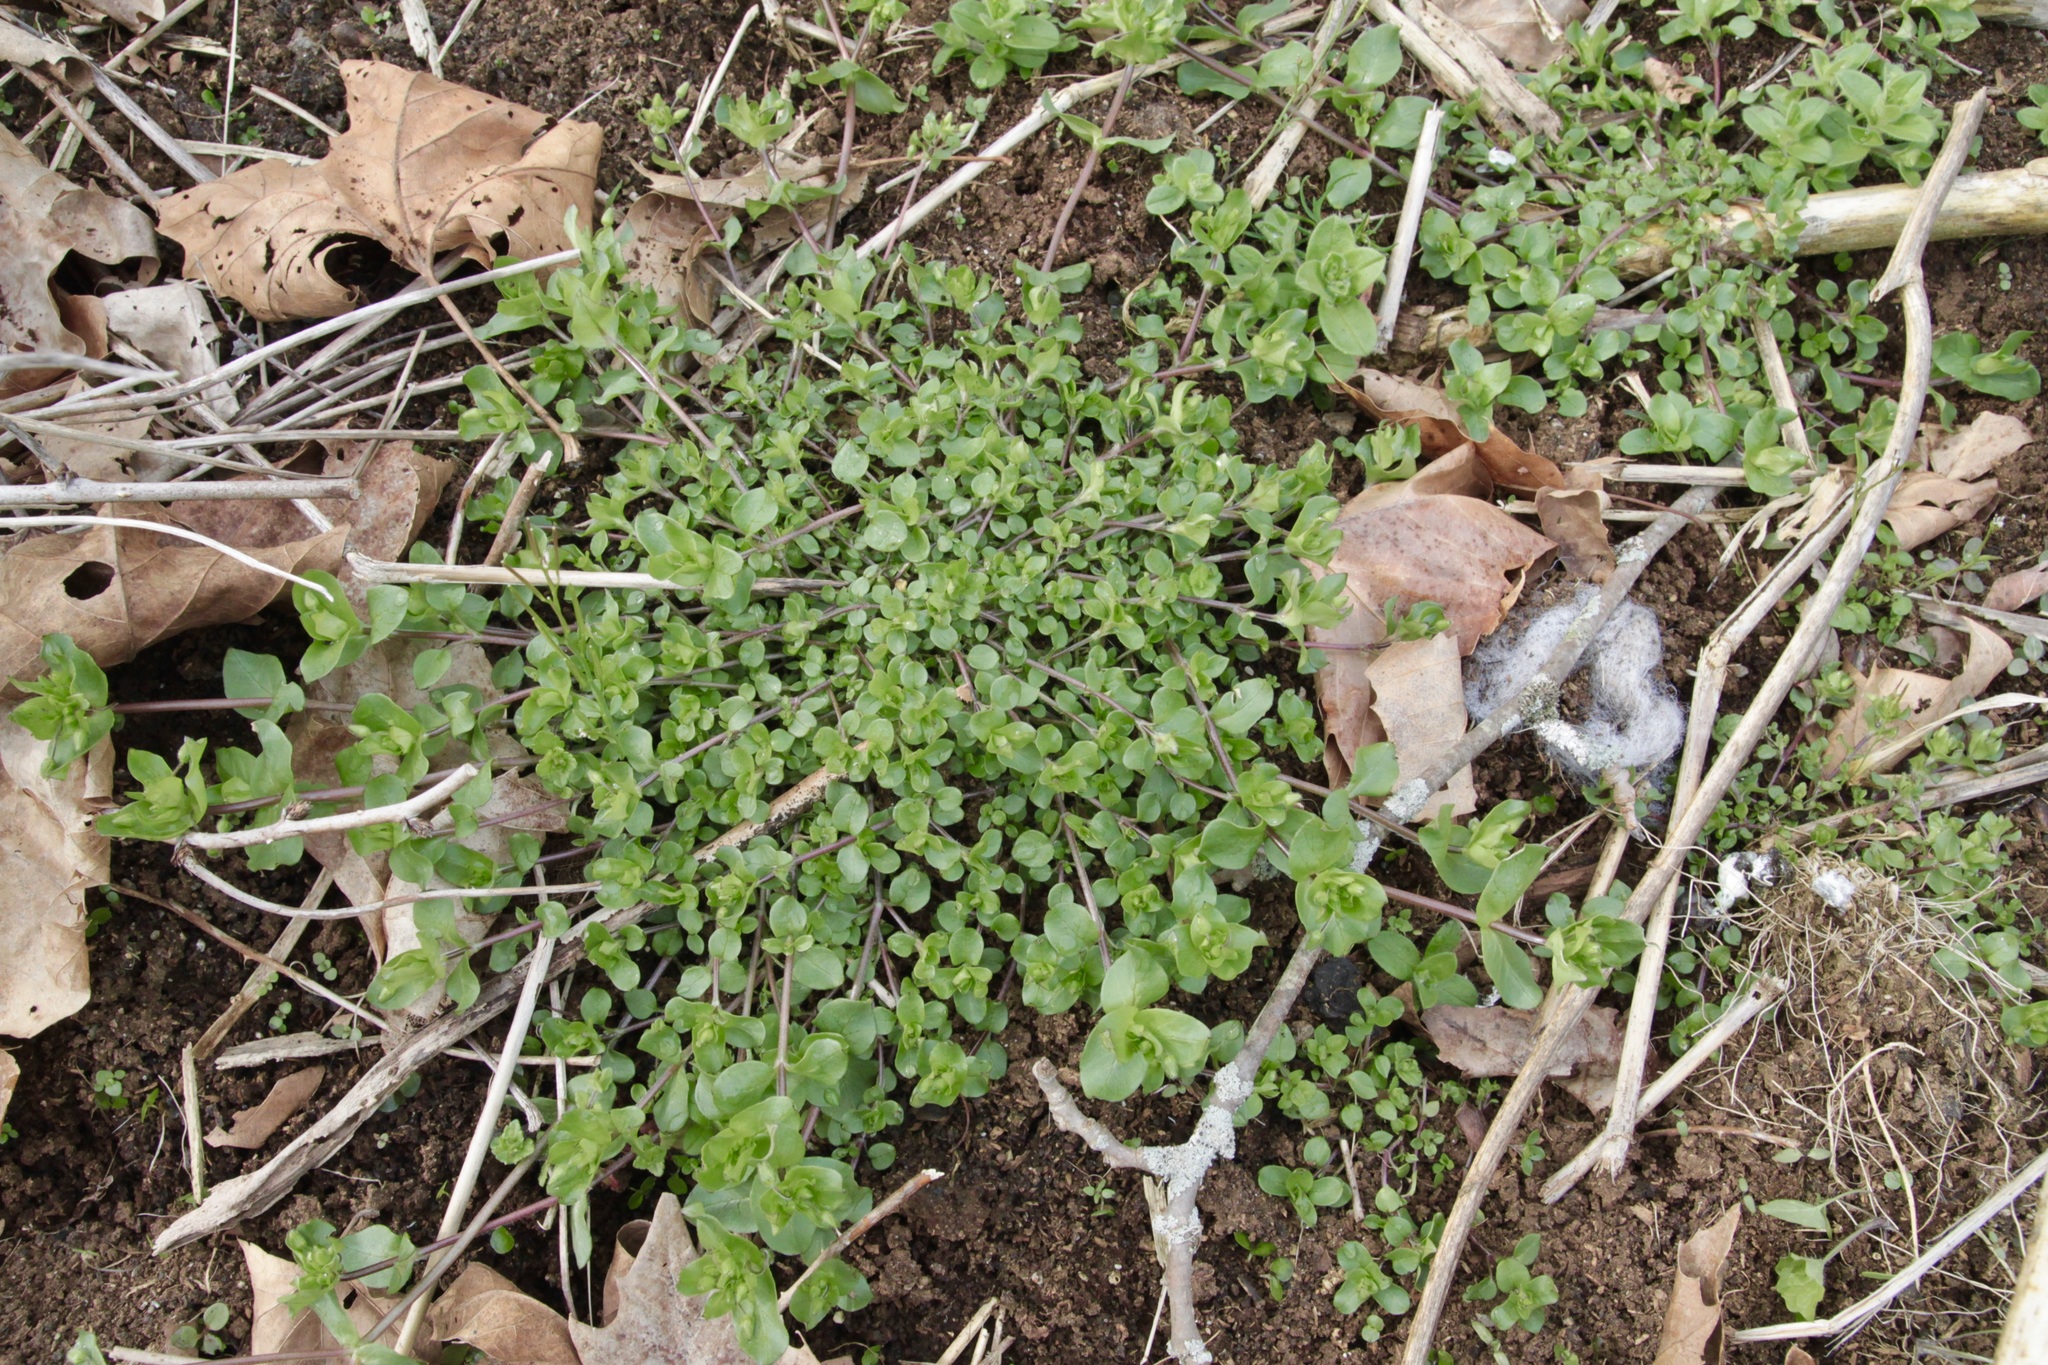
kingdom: Plantae
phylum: Tracheophyta
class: Magnoliopsida
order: Caryophyllales
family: Caryophyllaceae
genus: Stellaria
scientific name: Stellaria media
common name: Common chickweed
